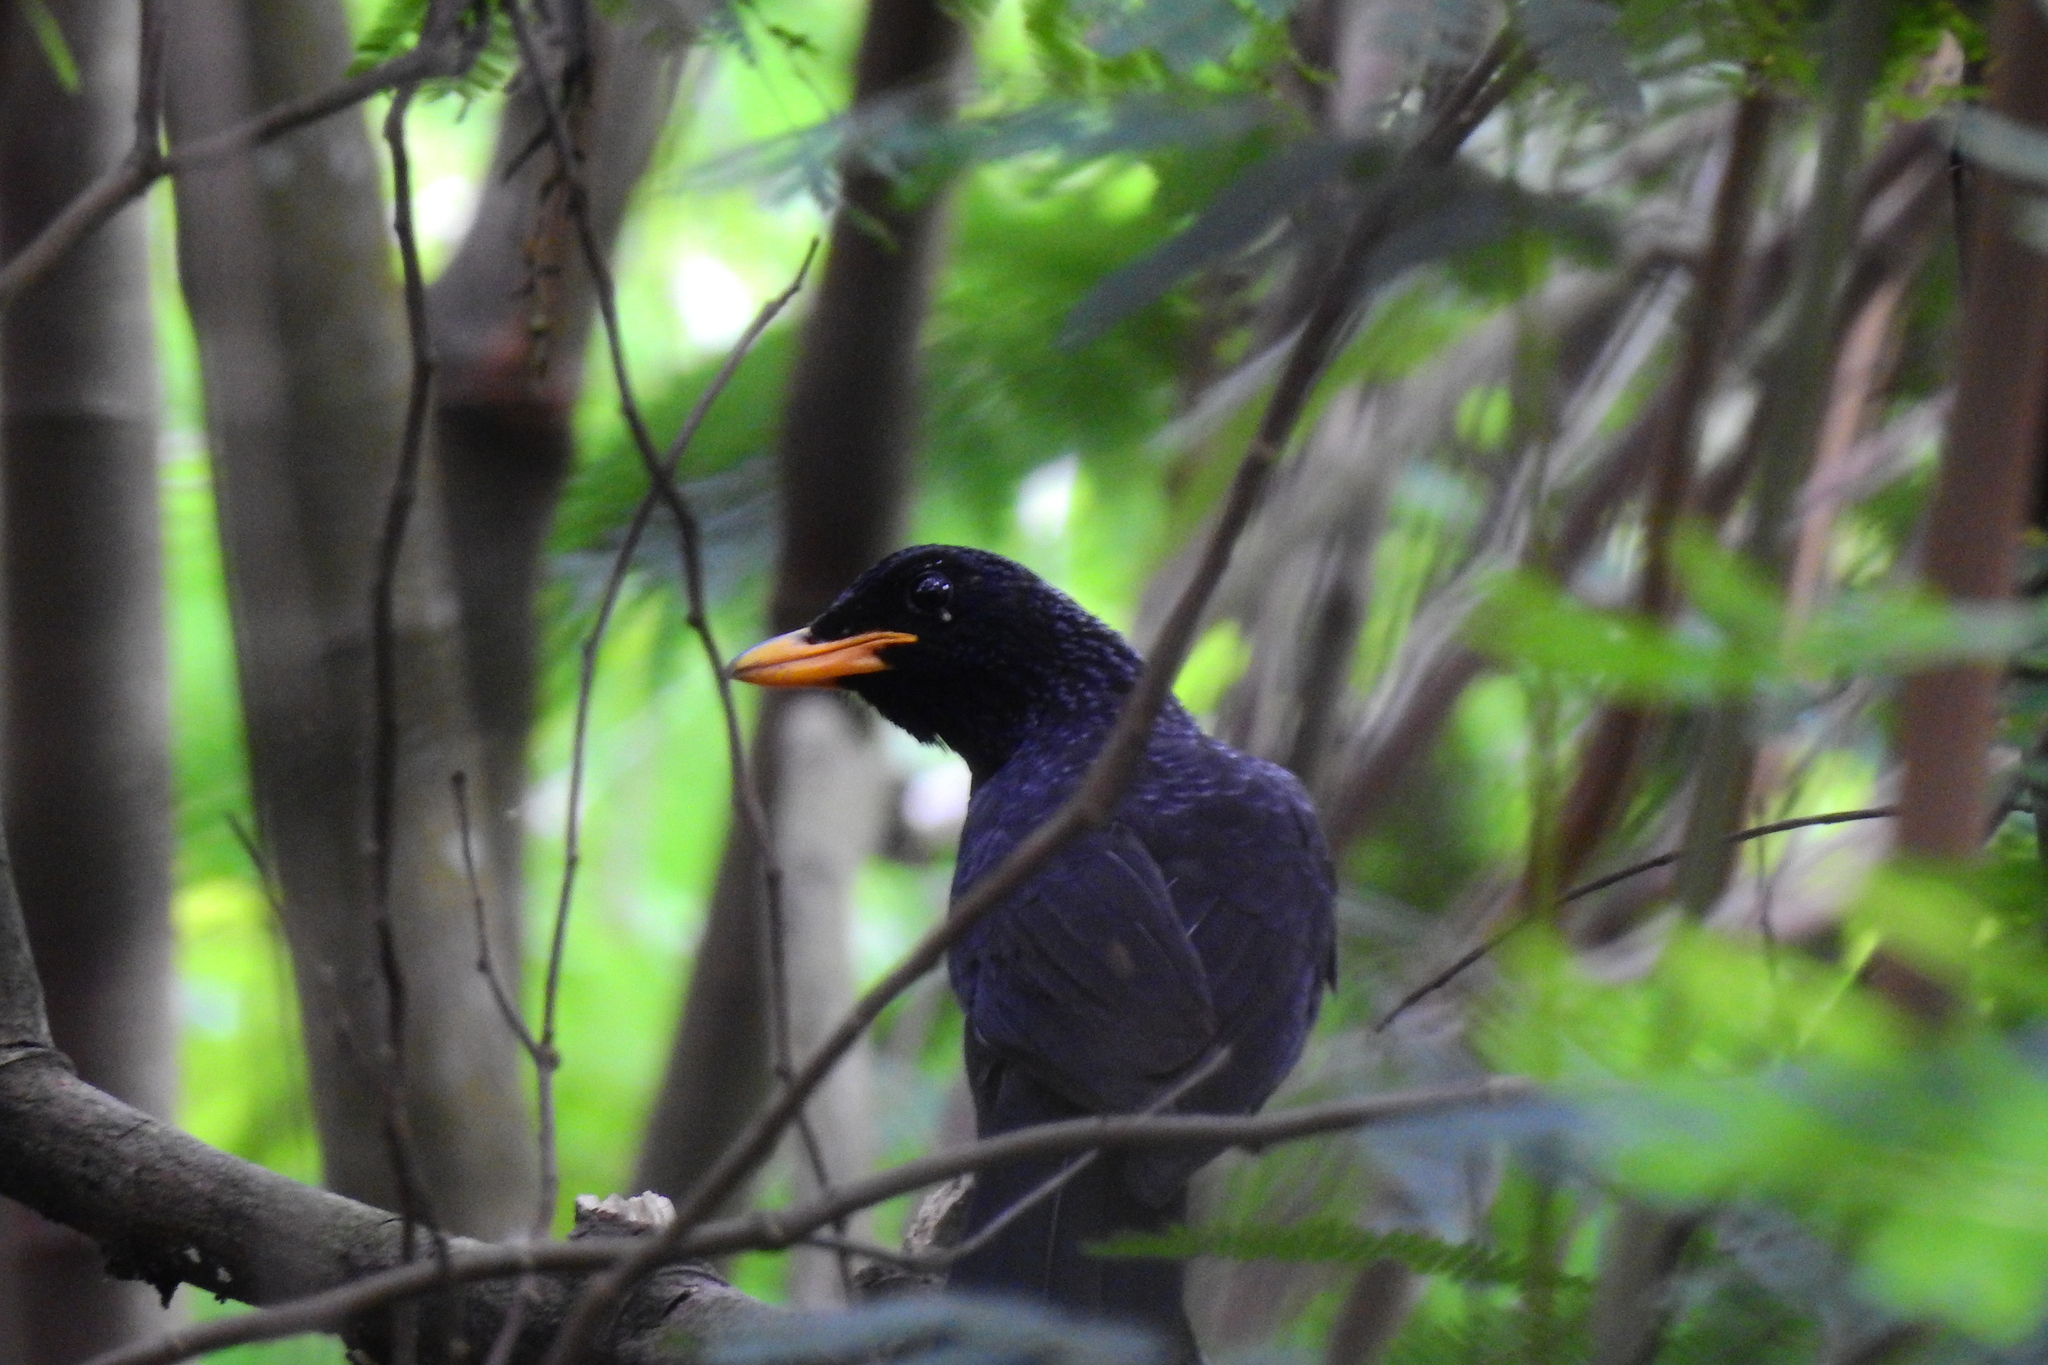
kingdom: Animalia
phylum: Chordata
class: Aves
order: Passeriformes
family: Muscicapidae
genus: Myophonus
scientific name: Myophonus caeruleus
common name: Blue whistling-thrush
